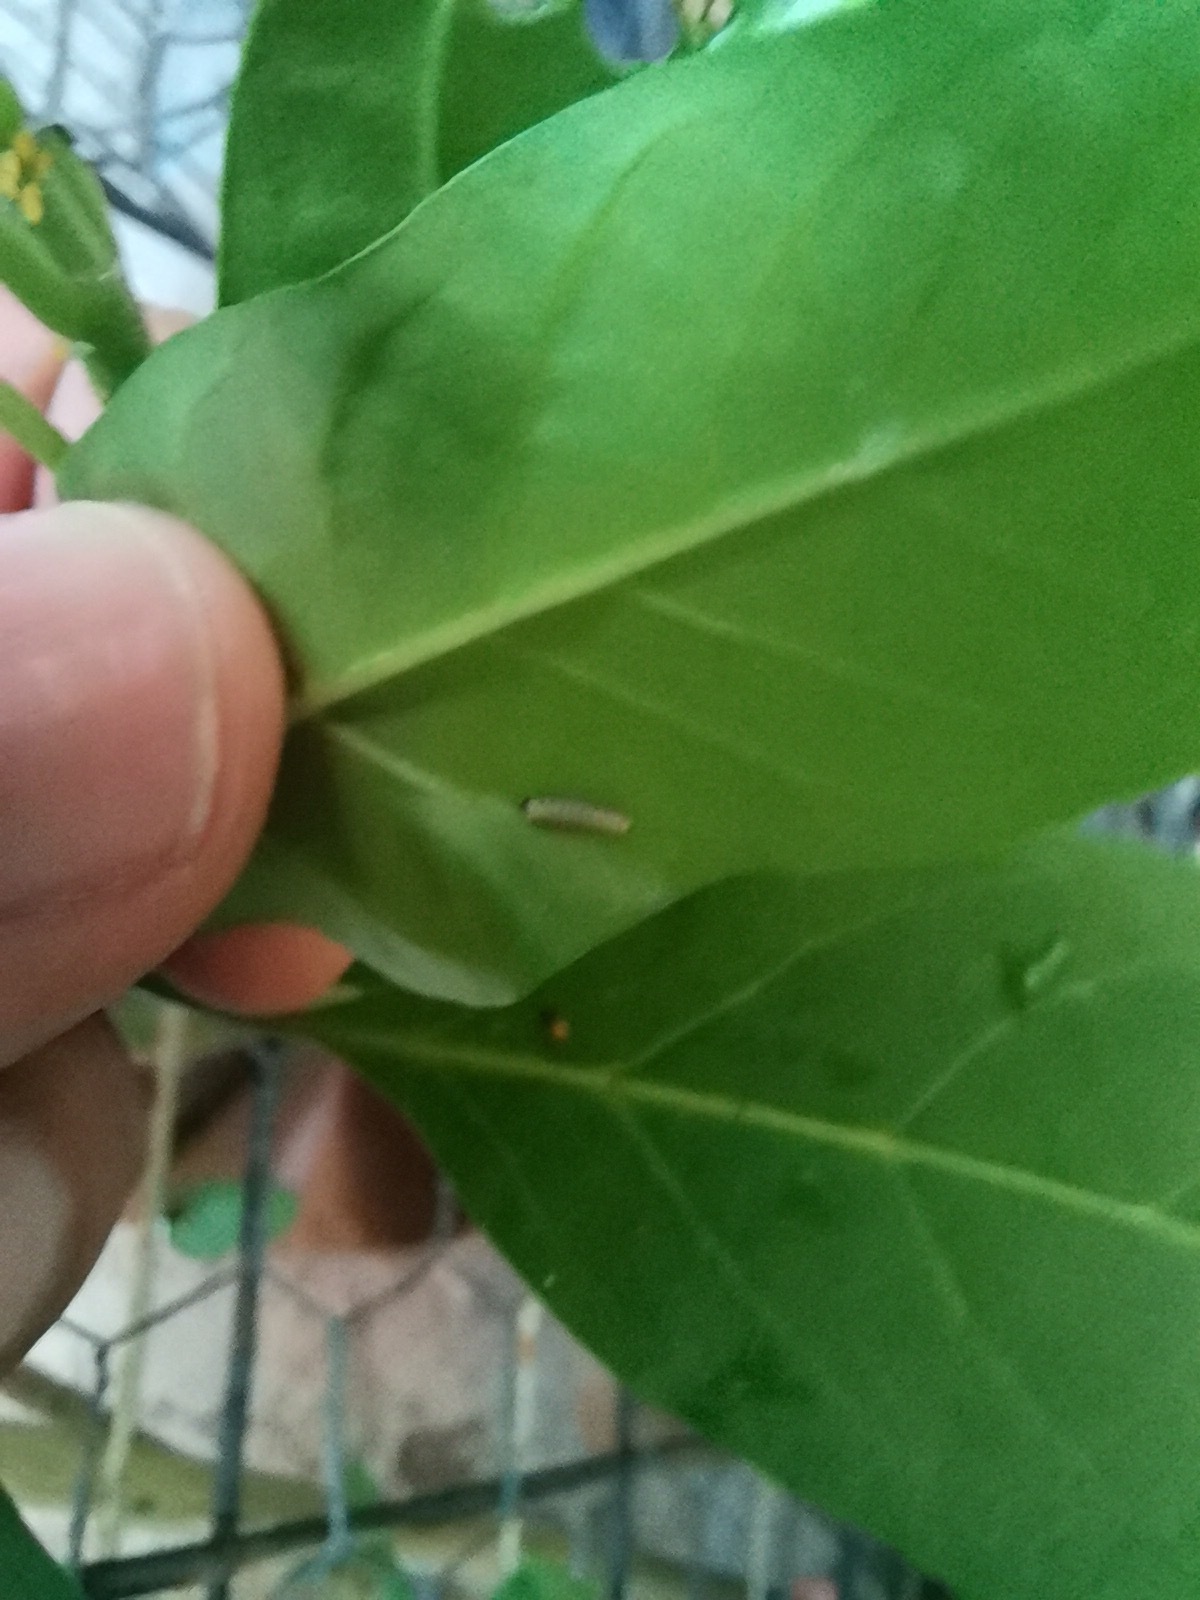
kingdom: Animalia
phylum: Arthropoda
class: Insecta
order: Lepidoptera
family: Nymphalidae
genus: Danaus
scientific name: Danaus plexippus
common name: Monarch
